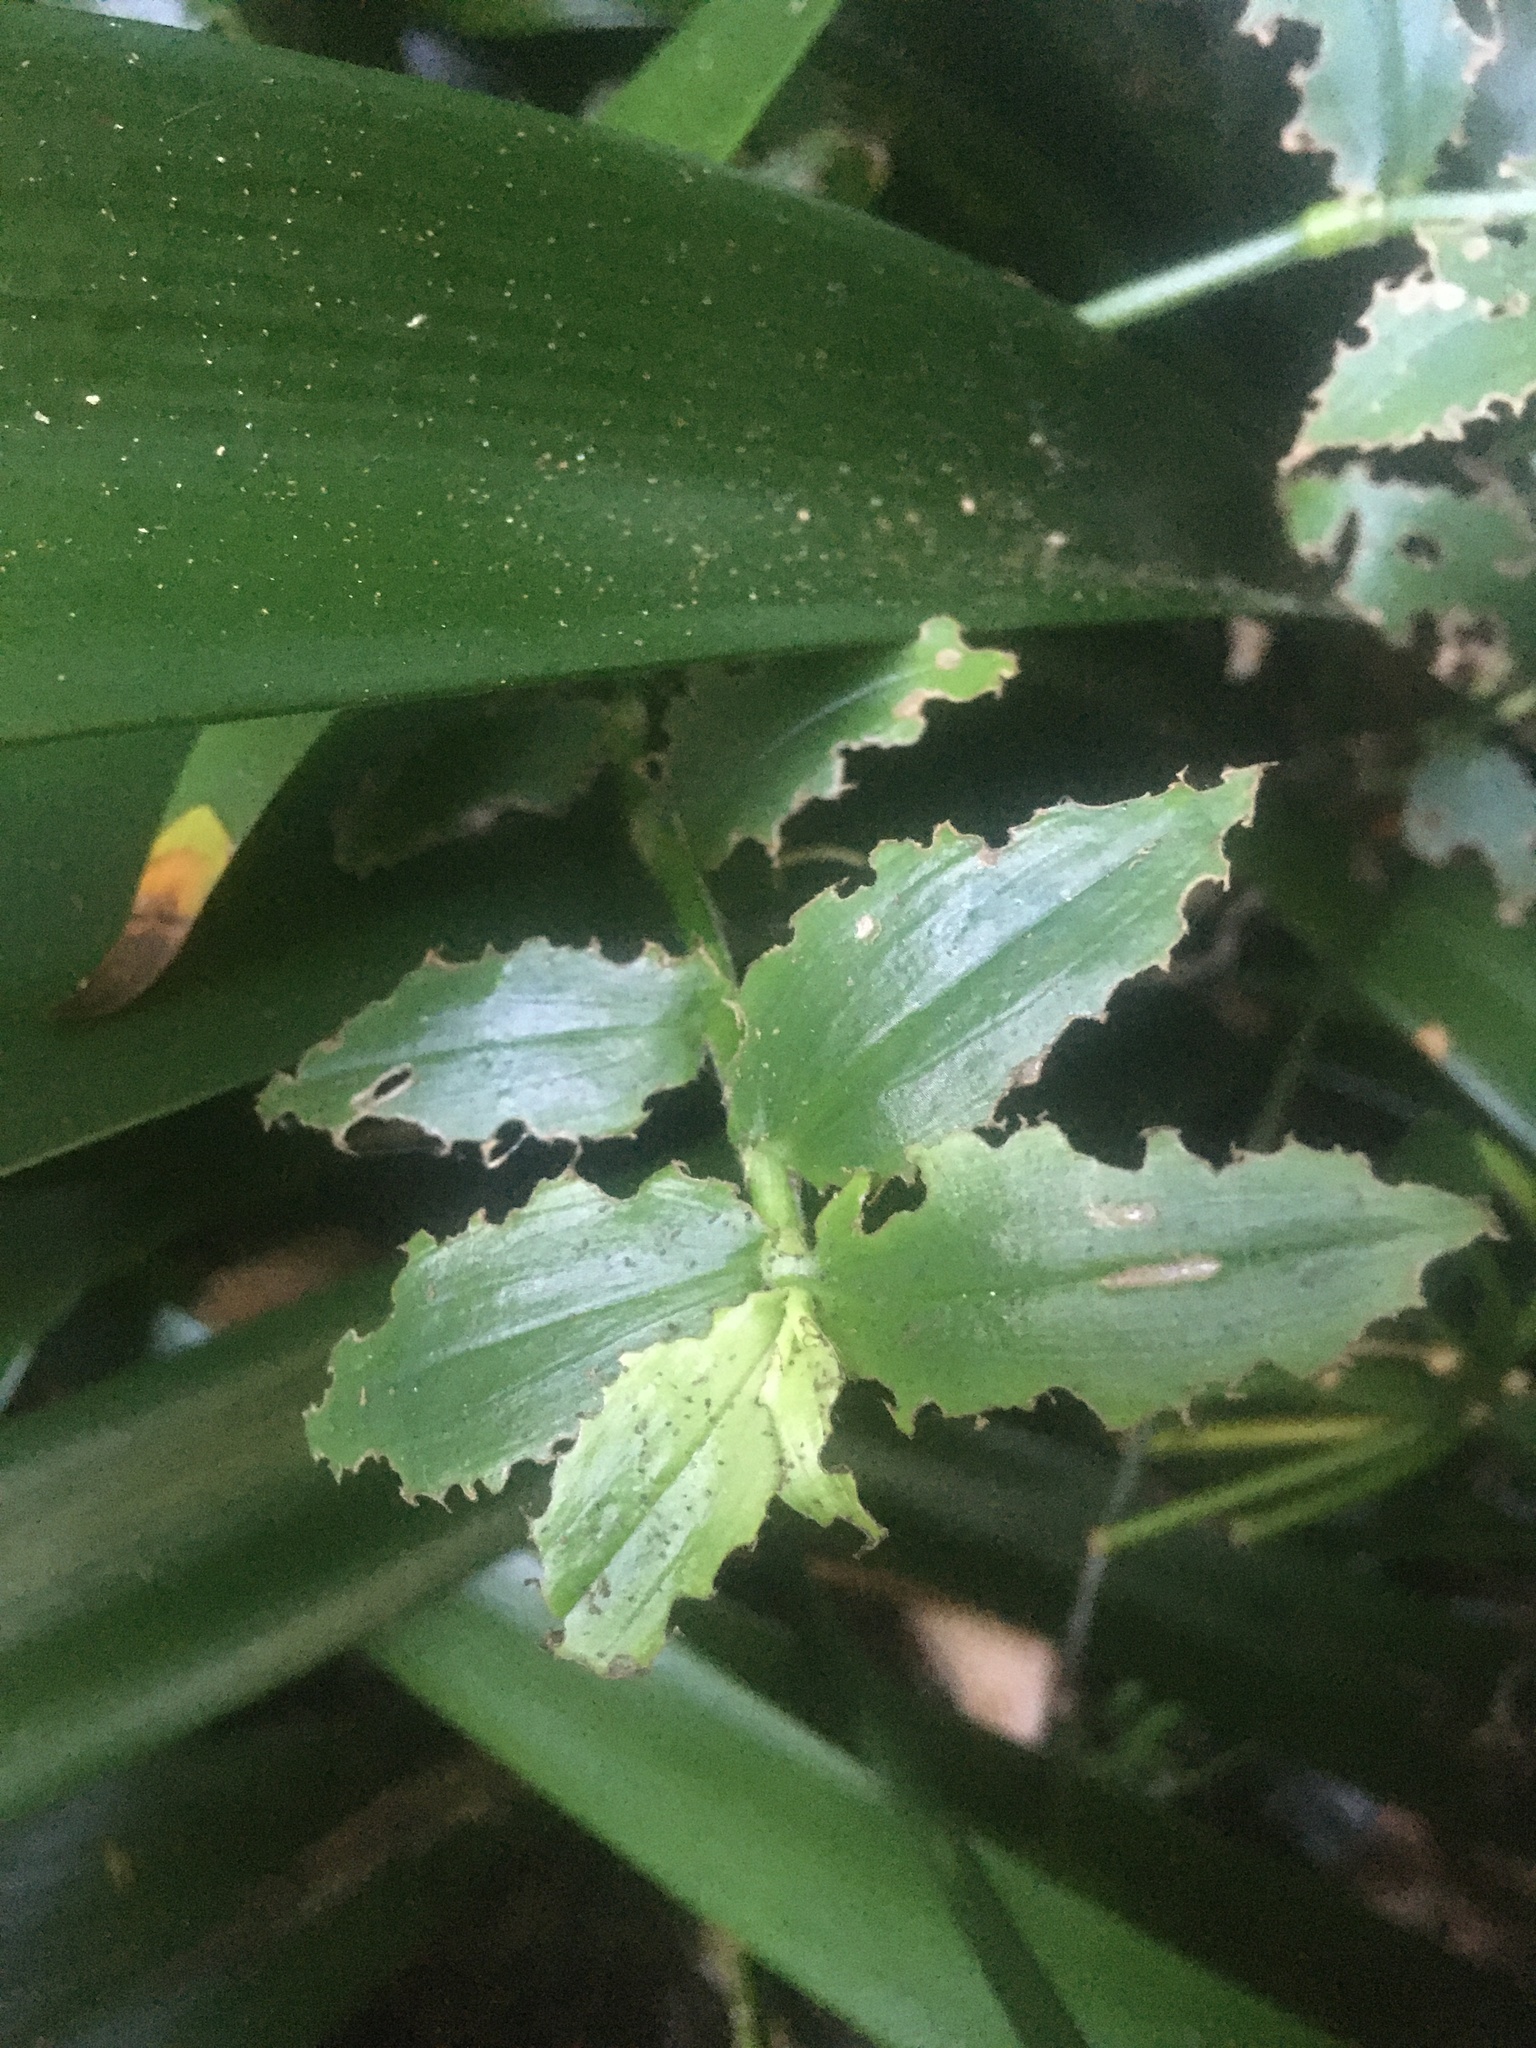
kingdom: Animalia
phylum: Arthropoda
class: Insecta
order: Coleoptera
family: Chrysomelidae
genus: Neolema
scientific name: Neolema ogloblini
